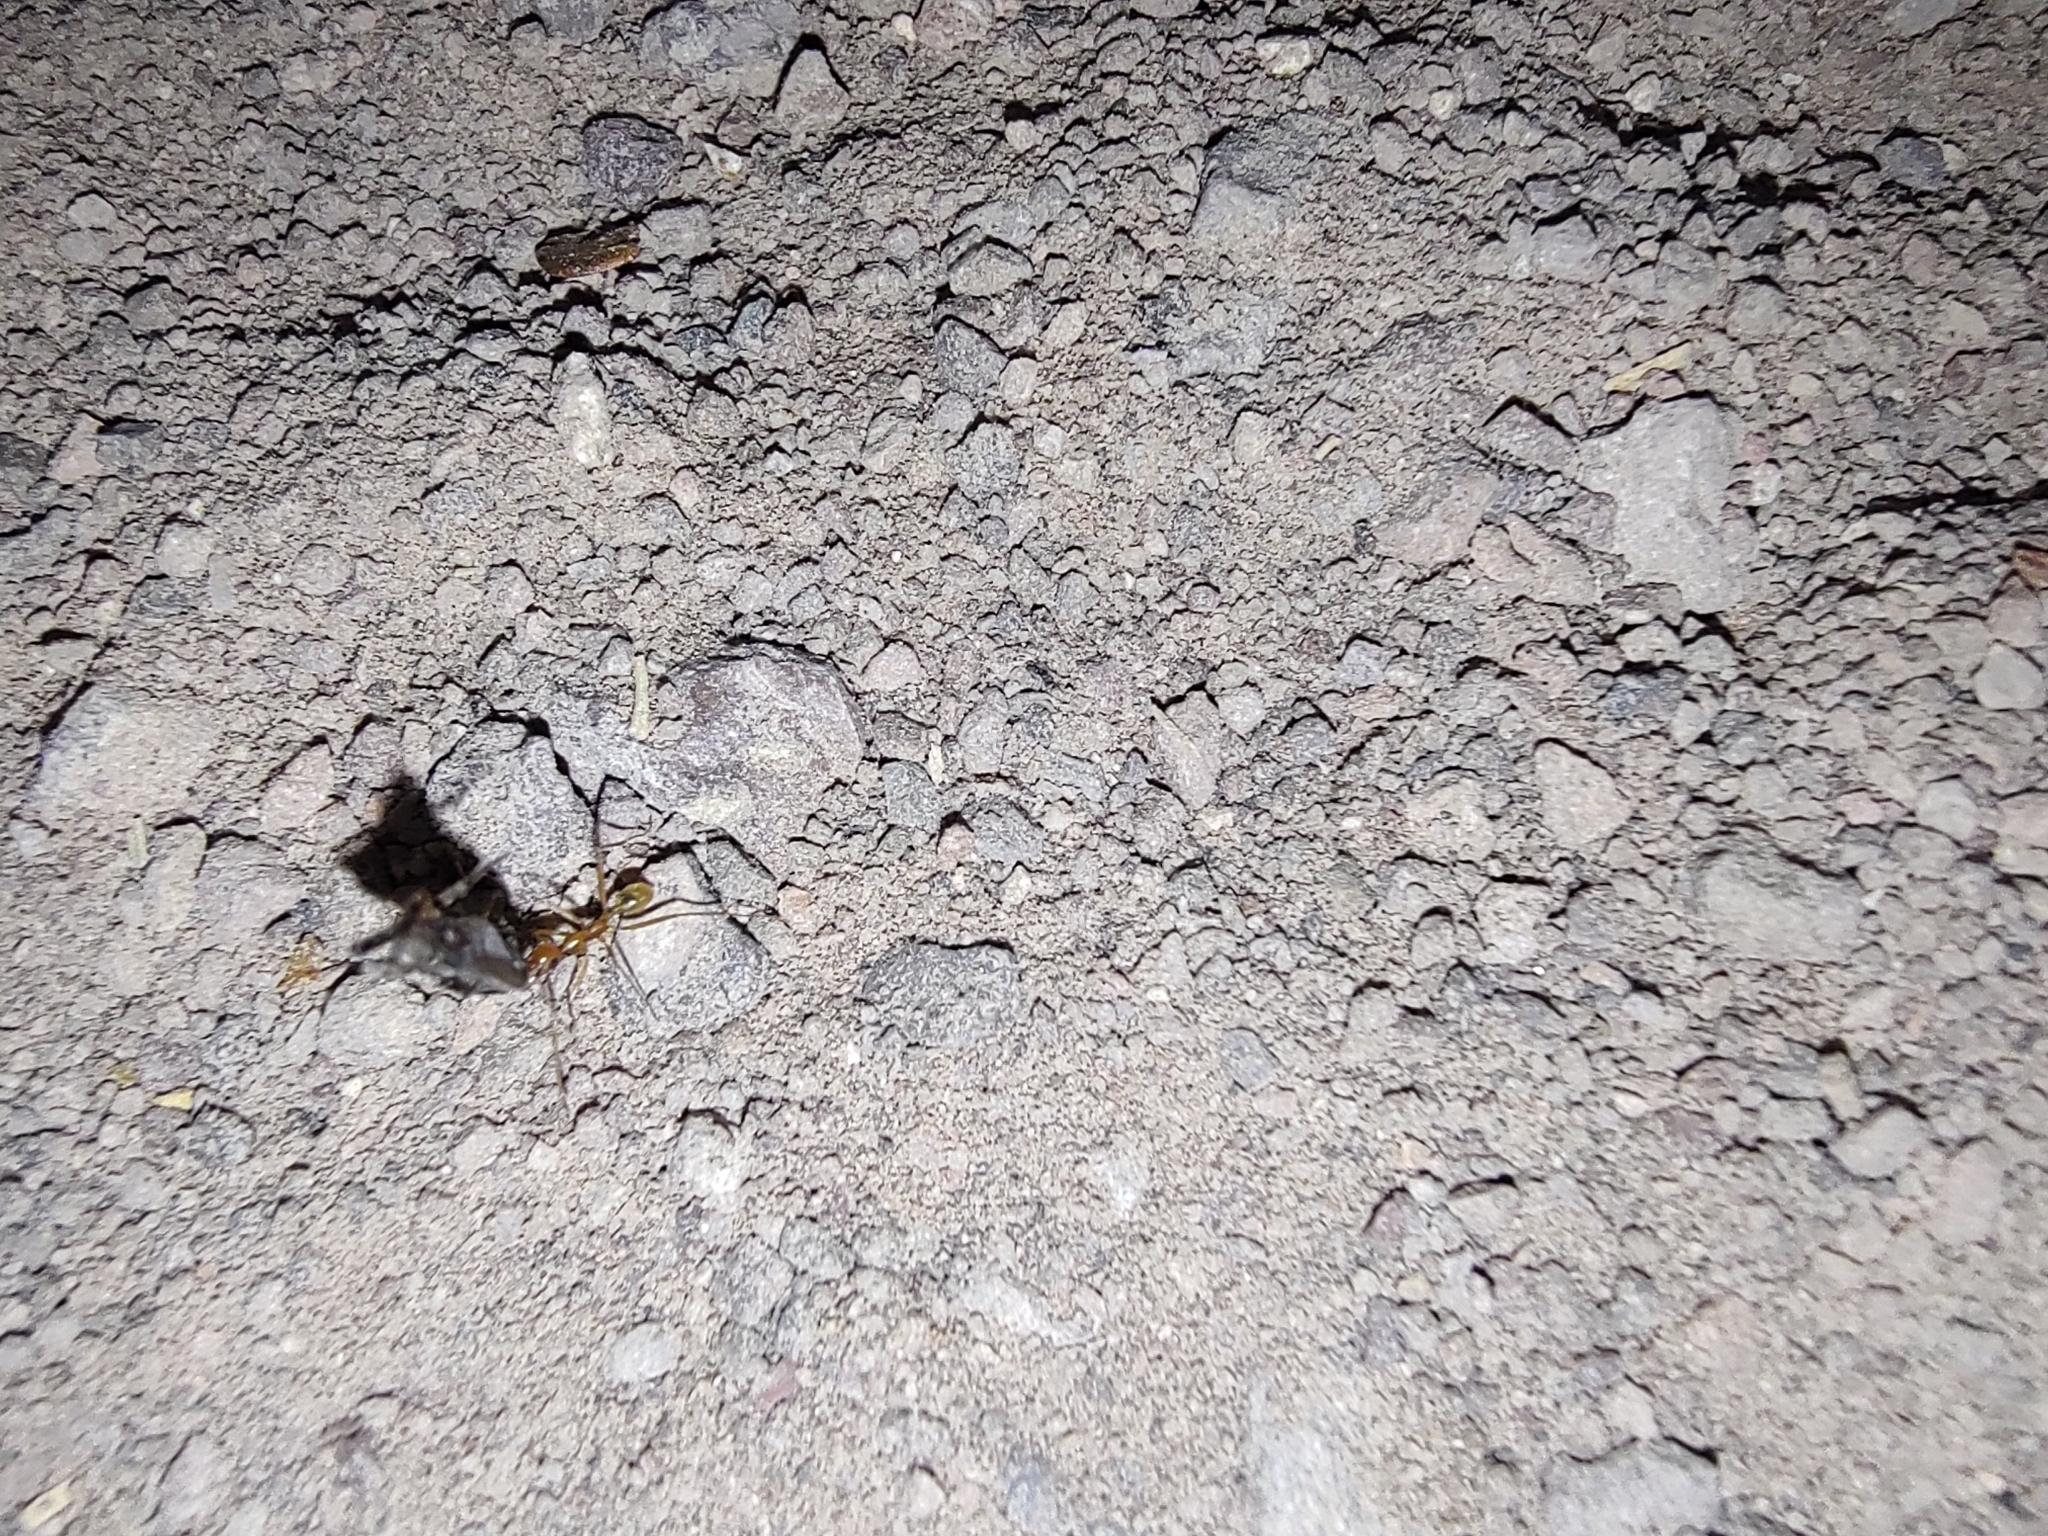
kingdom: Animalia
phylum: Arthropoda
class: Insecta
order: Hymenoptera
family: Formicidae
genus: Aphaenogaster
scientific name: Aphaenogaster megommata
